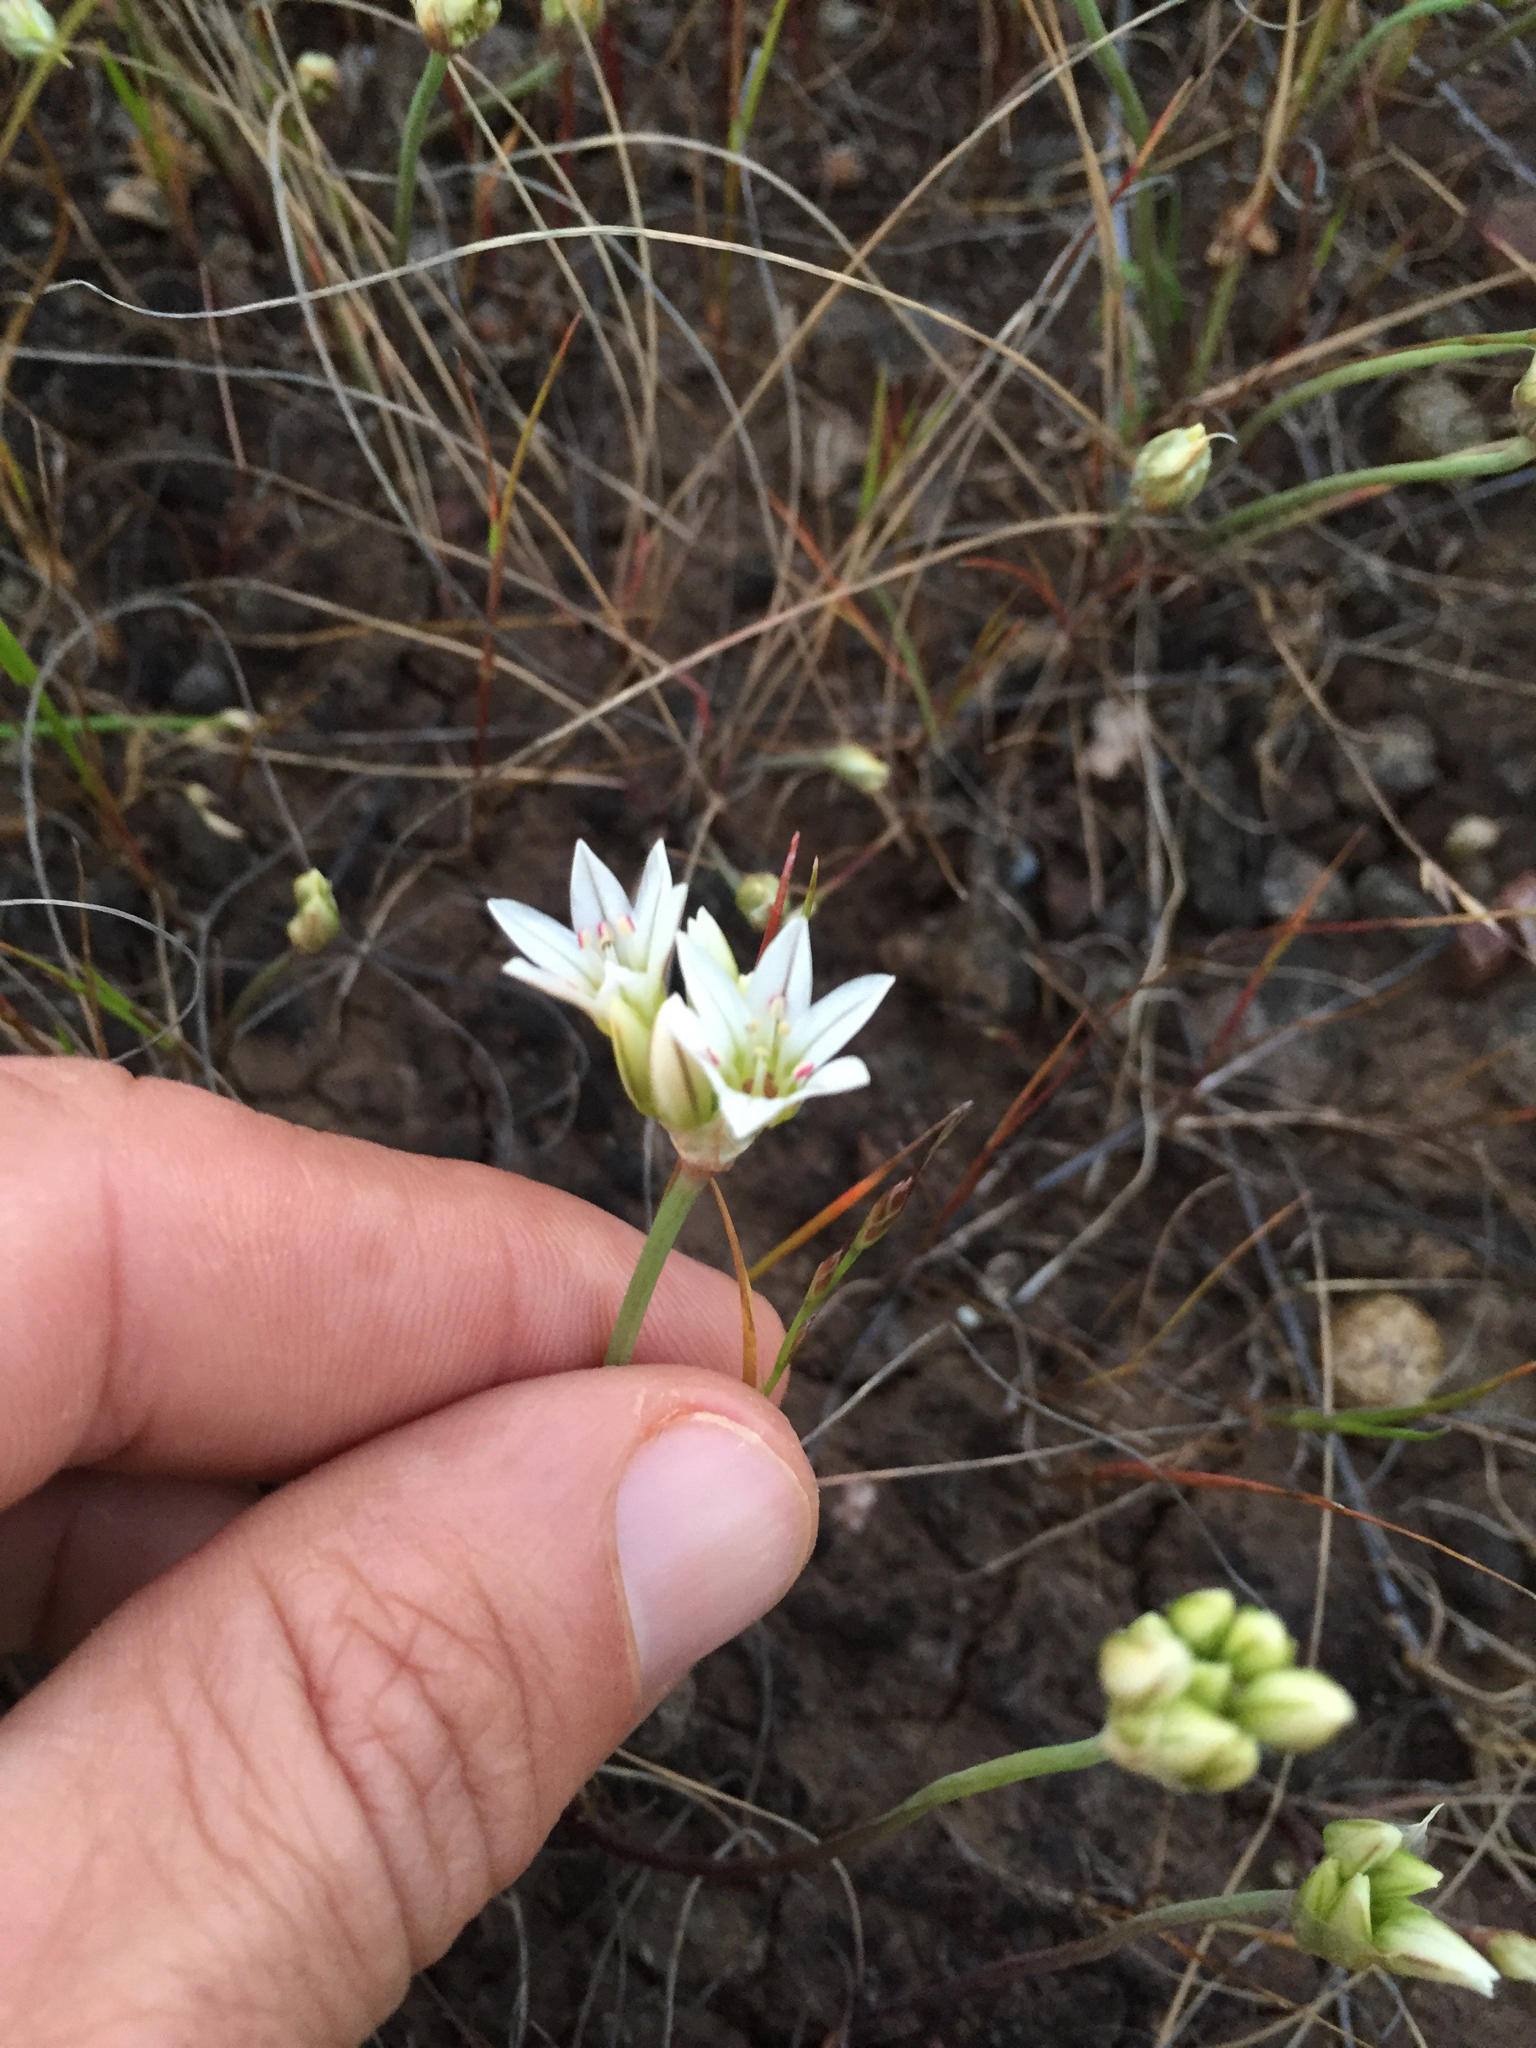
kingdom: Plantae
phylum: Tracheophyta
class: Liliopsida
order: Asparagales
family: Amaryllidaceae
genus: Allium
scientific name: Allium lacunosum
